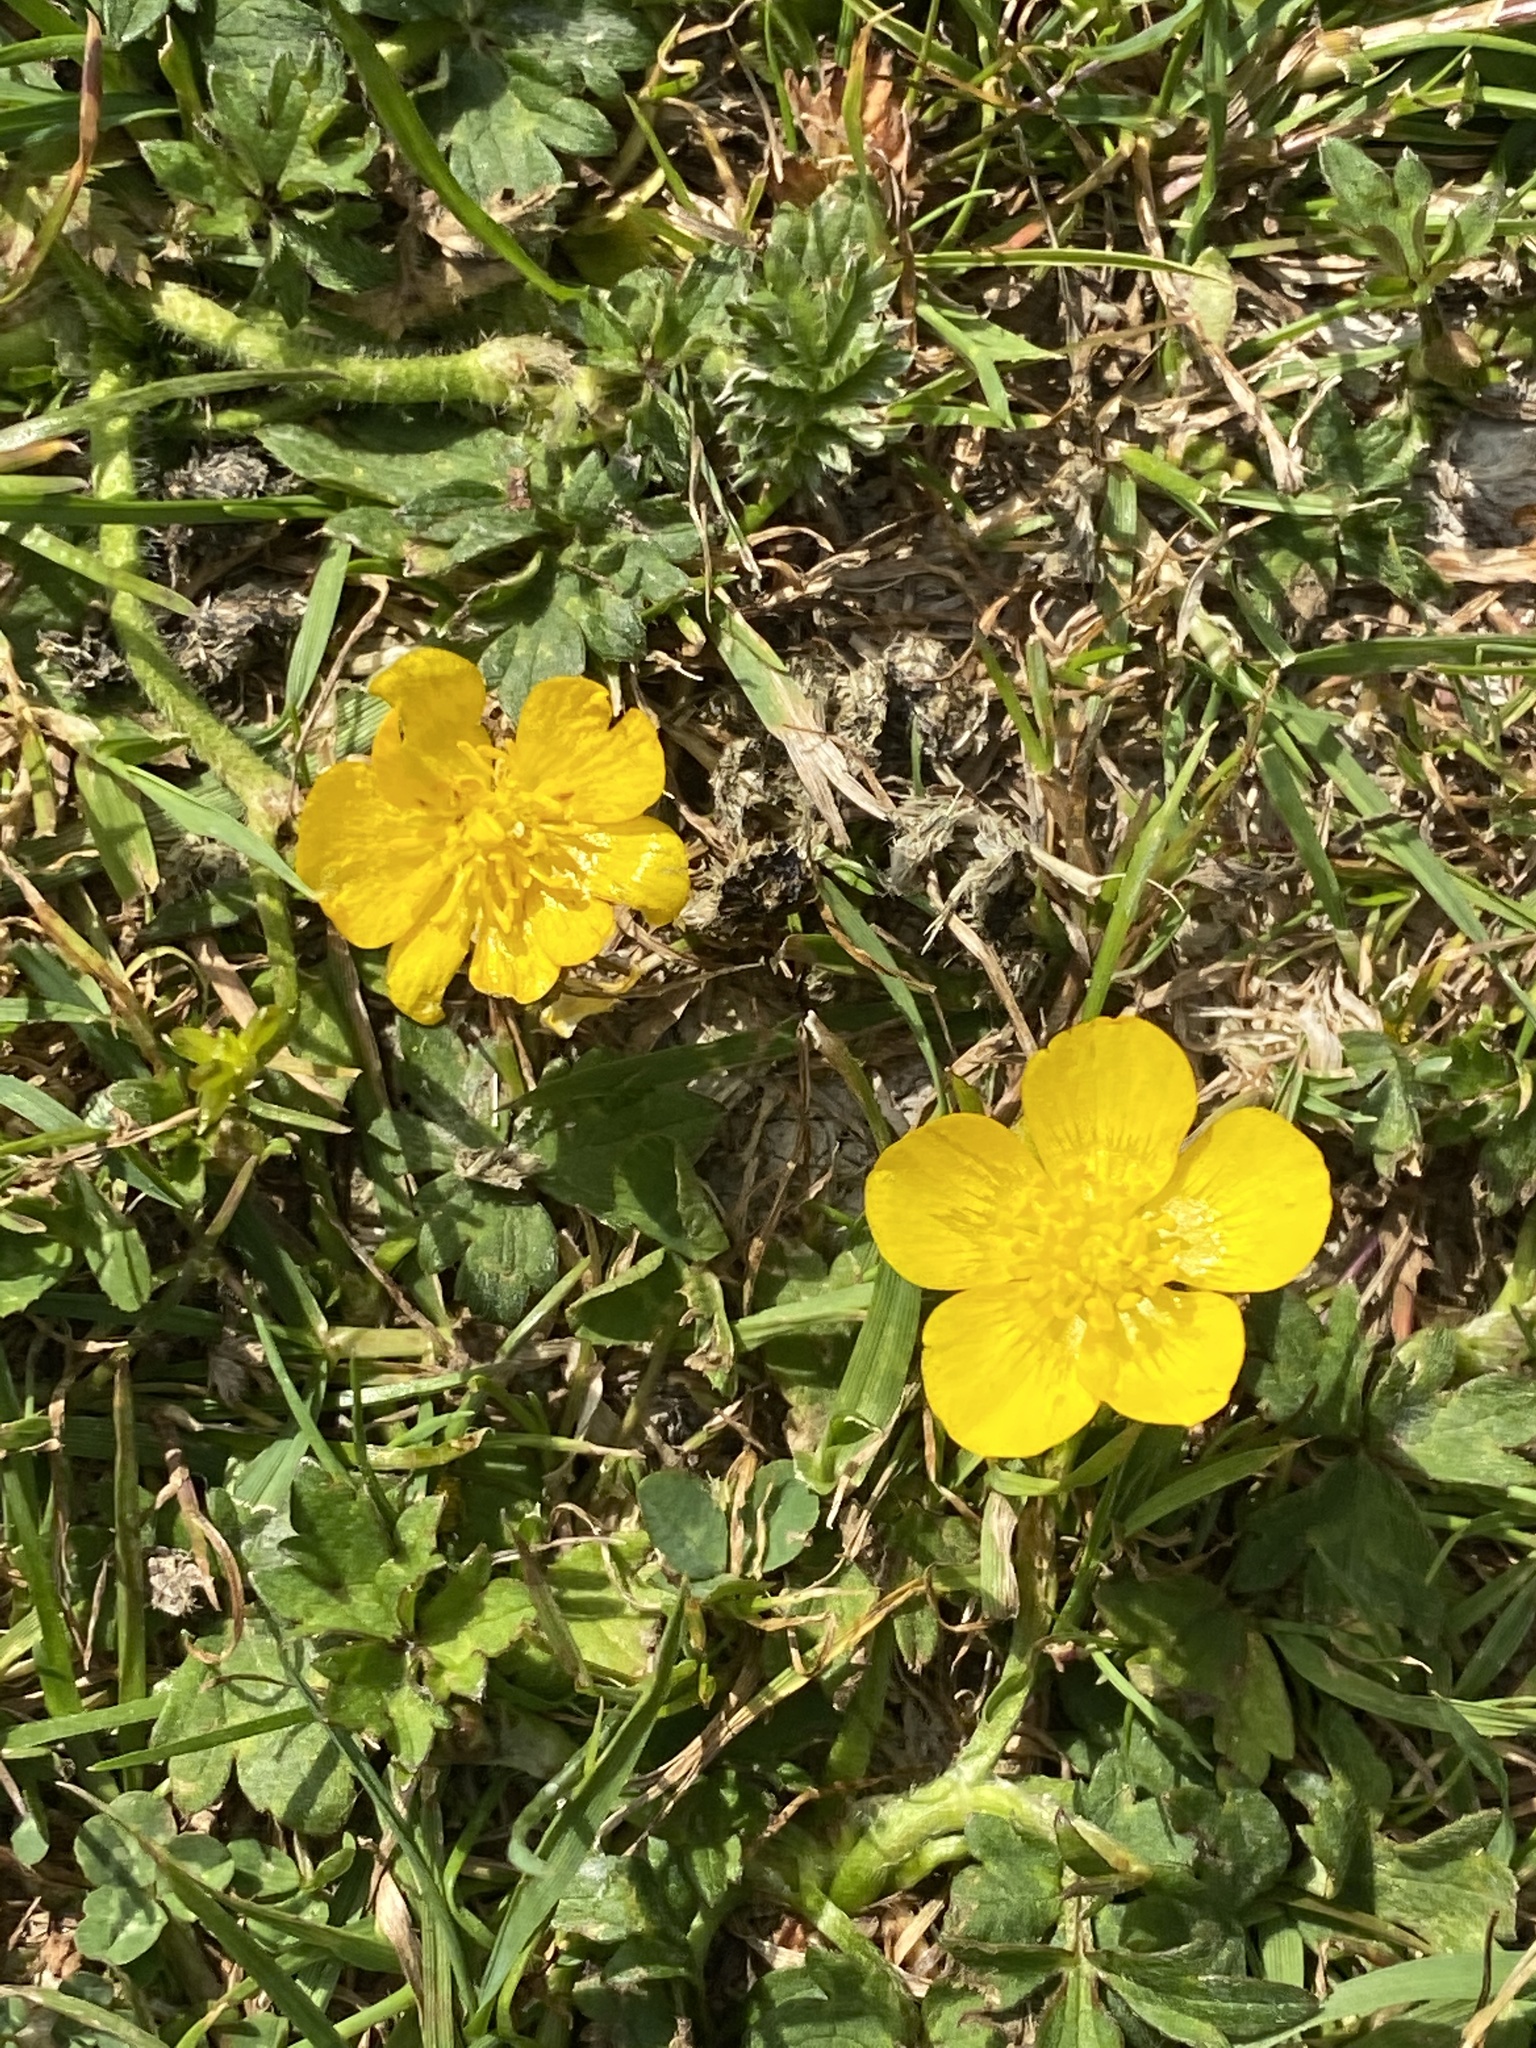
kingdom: Plantae
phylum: Tracheophyta
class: Magnoliopsida
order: Ranunculales
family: Ranunculaceae
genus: Ranunculus
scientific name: Ranunculus repens
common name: Creeping buttercup
